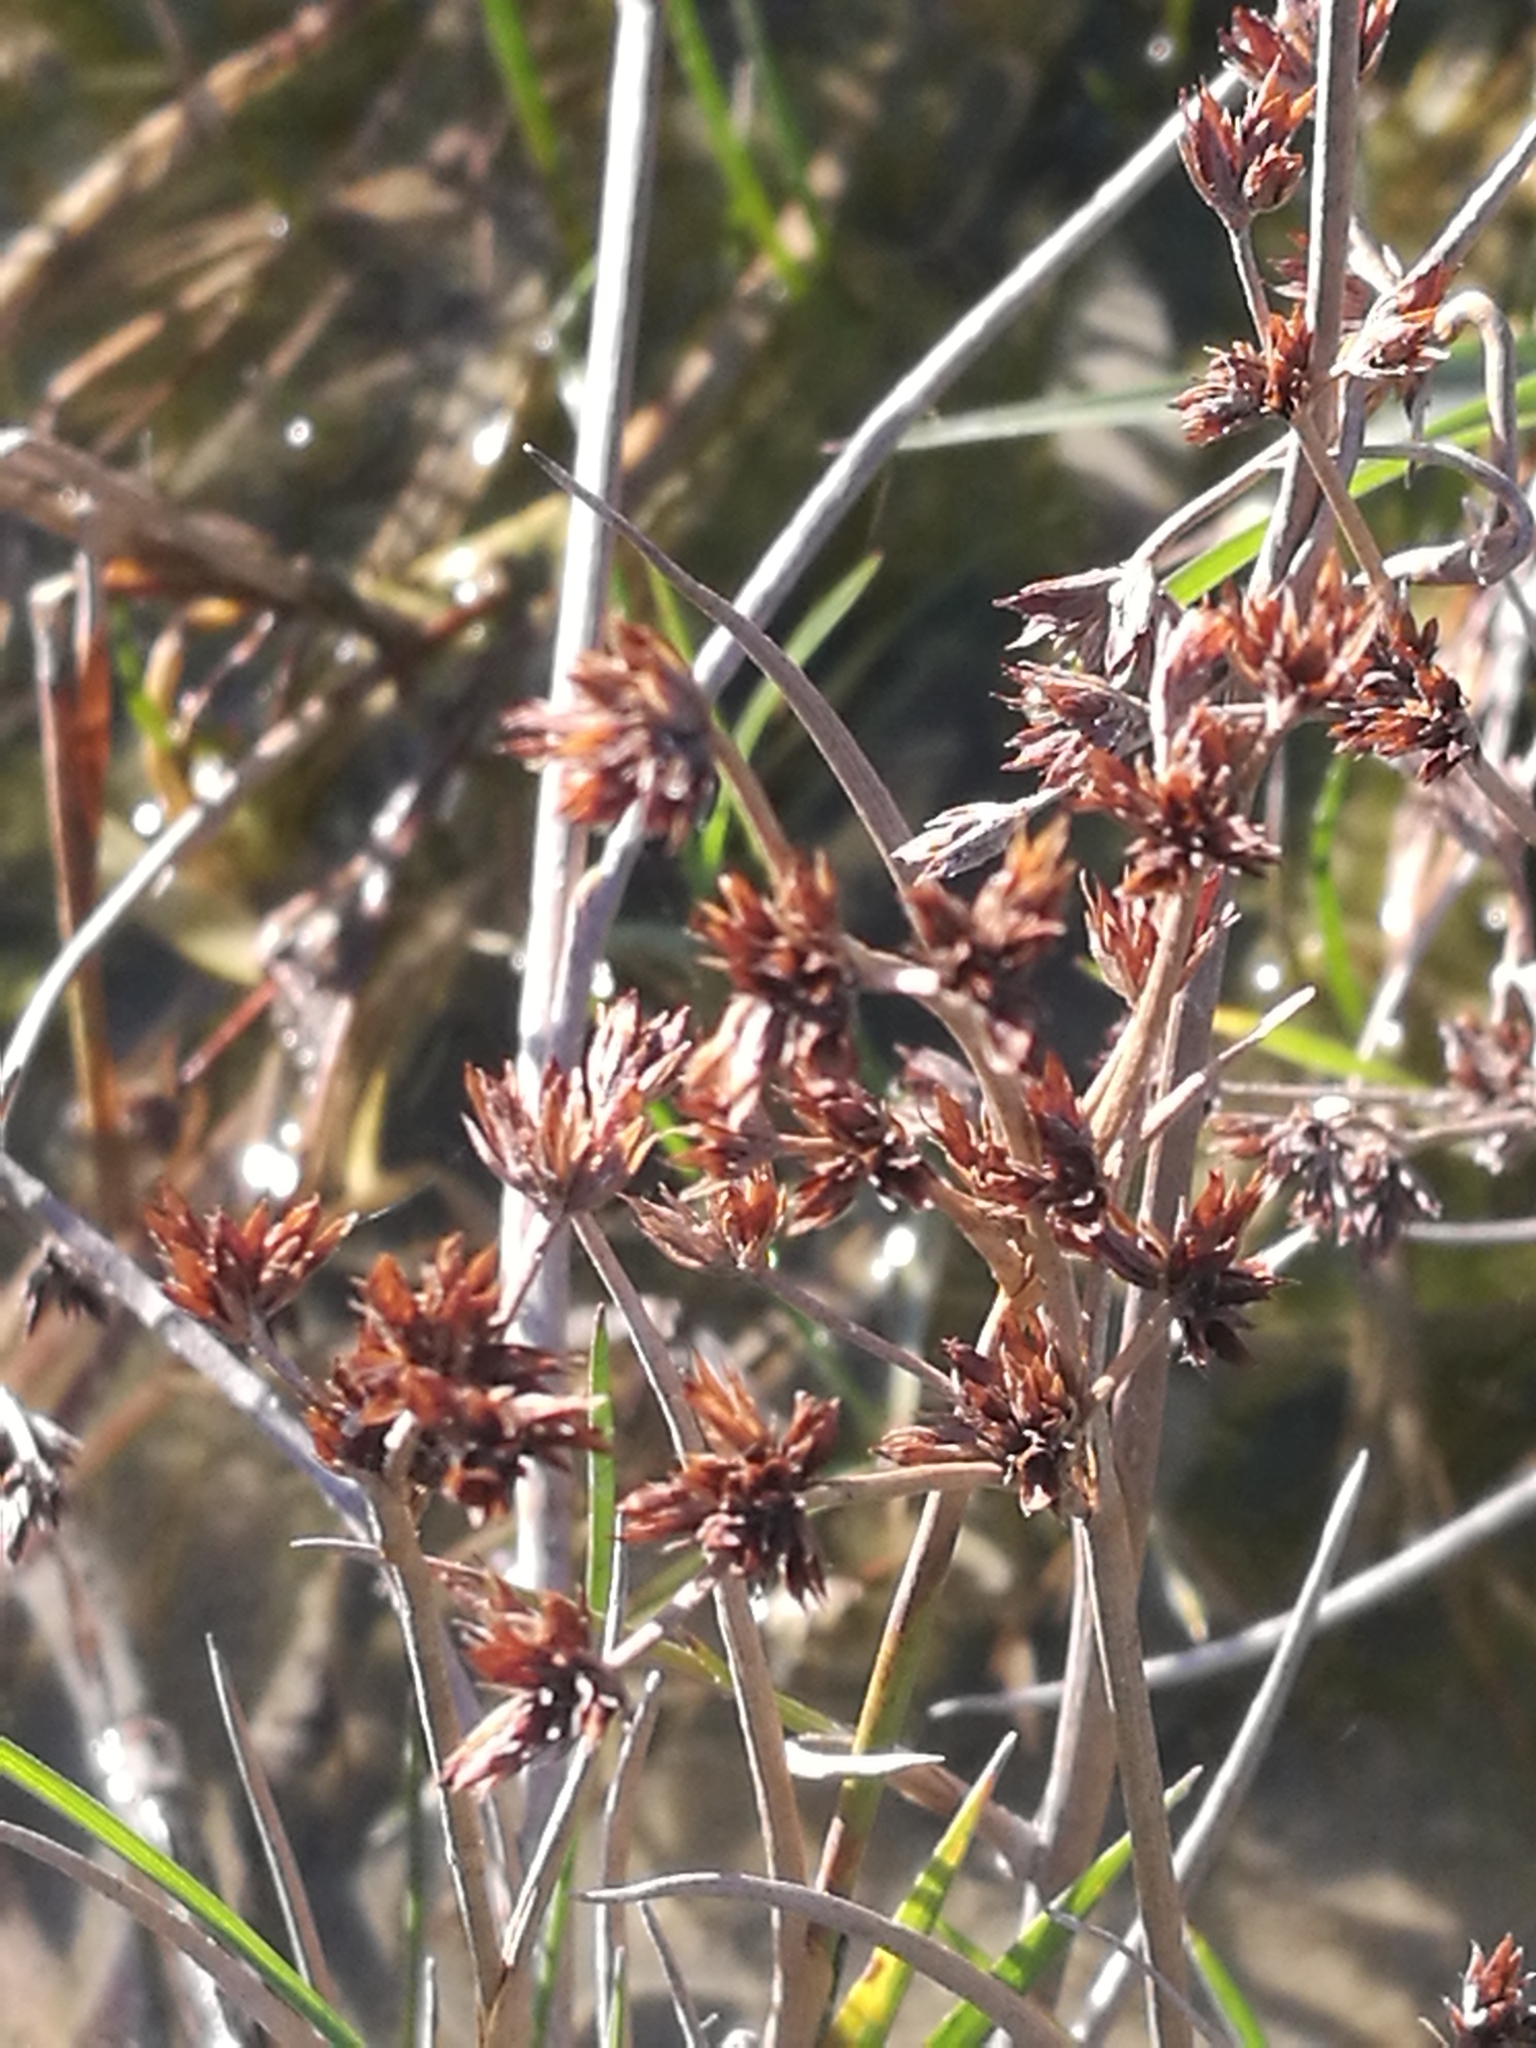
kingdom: Plantae
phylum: Tracheophyta
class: Liliopsida
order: Poales
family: Juncaceae
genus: Juncus
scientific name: Juncus articulatus
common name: Jointed rush
